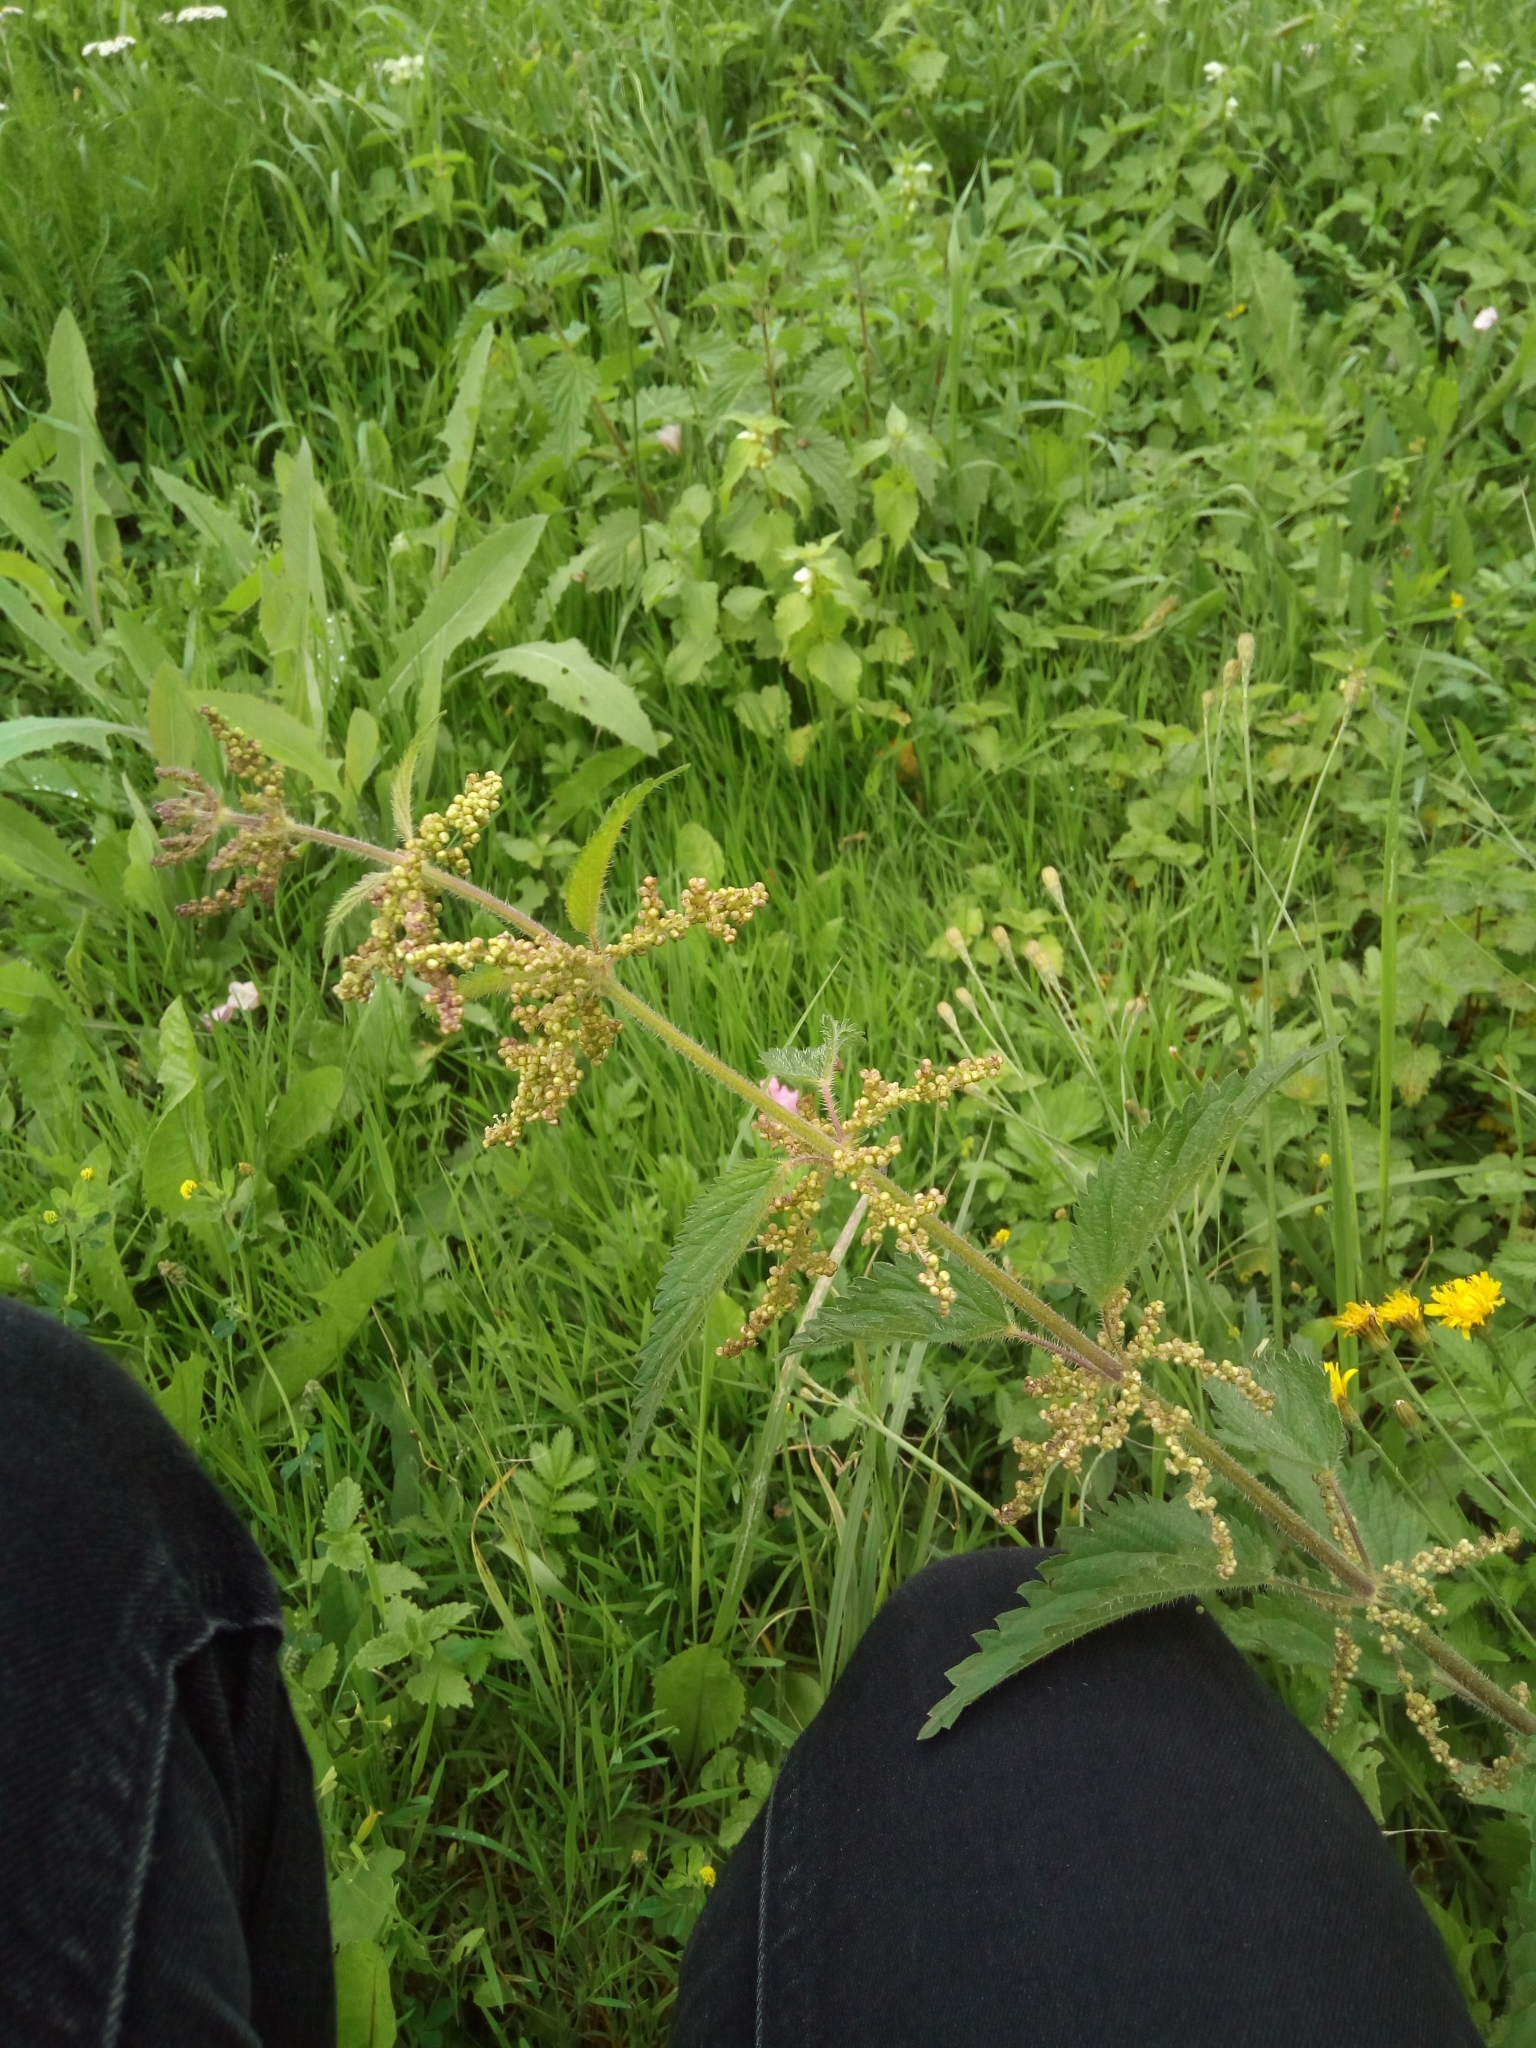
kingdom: Plantae
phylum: Tracheophyta
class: Magnoliopsida
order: Rosales
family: Urticaceae
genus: Urtica
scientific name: Urtica dioica
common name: Common nettle
